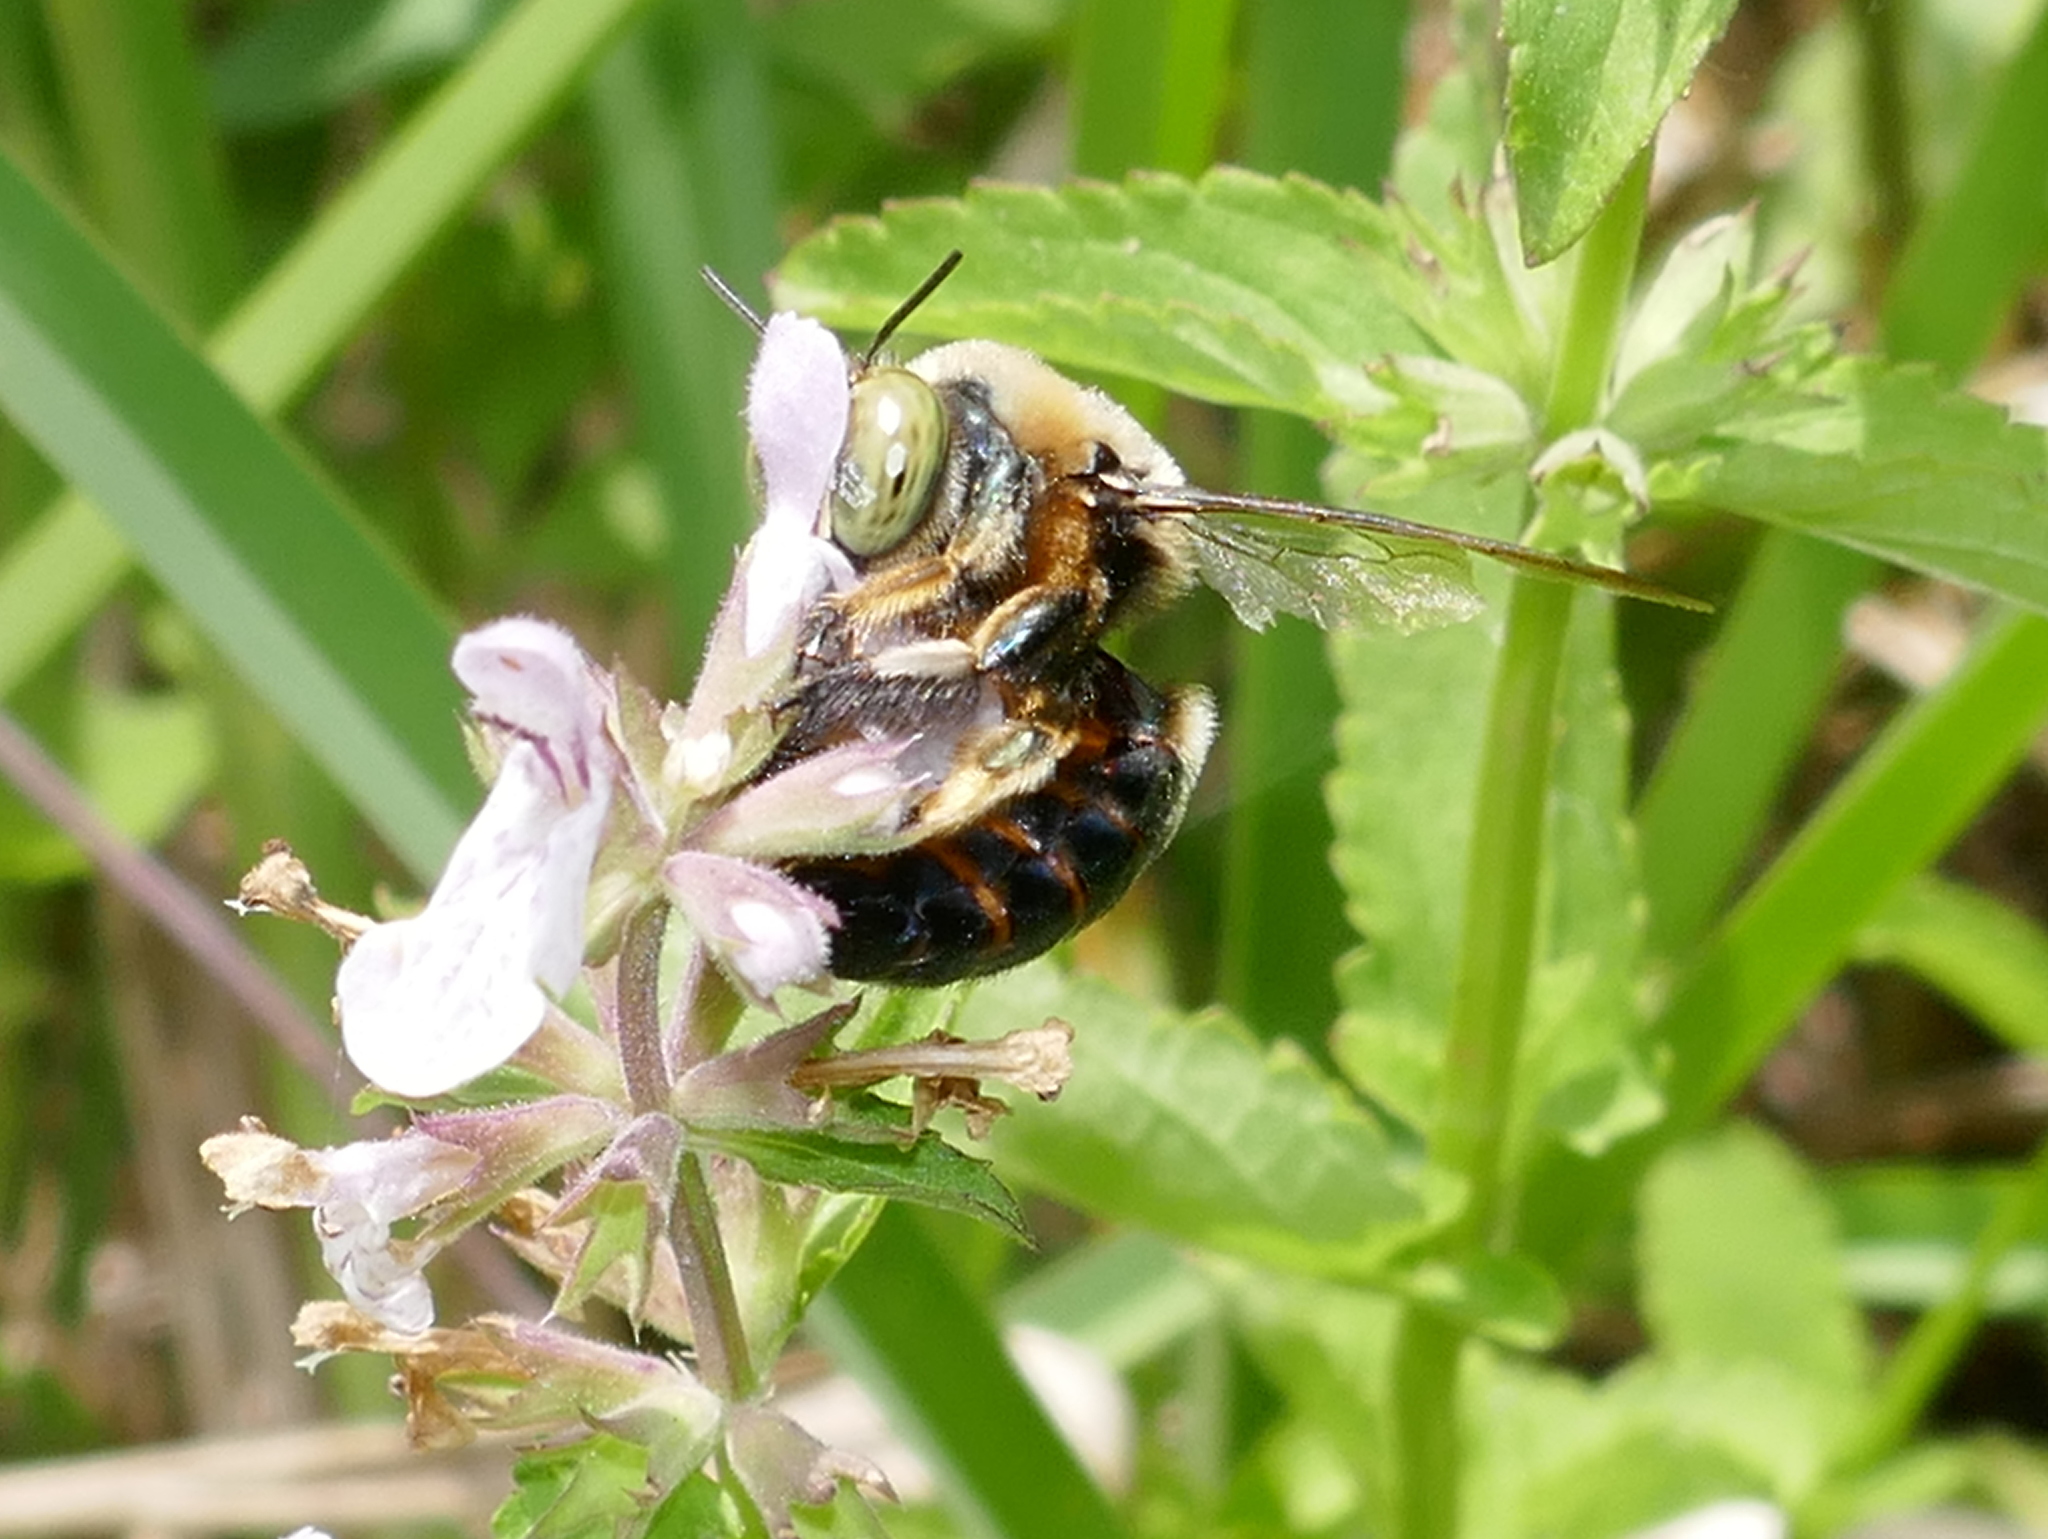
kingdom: Animalia
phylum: Arthropoda
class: Insecta
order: Hymenoptera
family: Apidae
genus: Xylocopa
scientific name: Xylocopa micans
